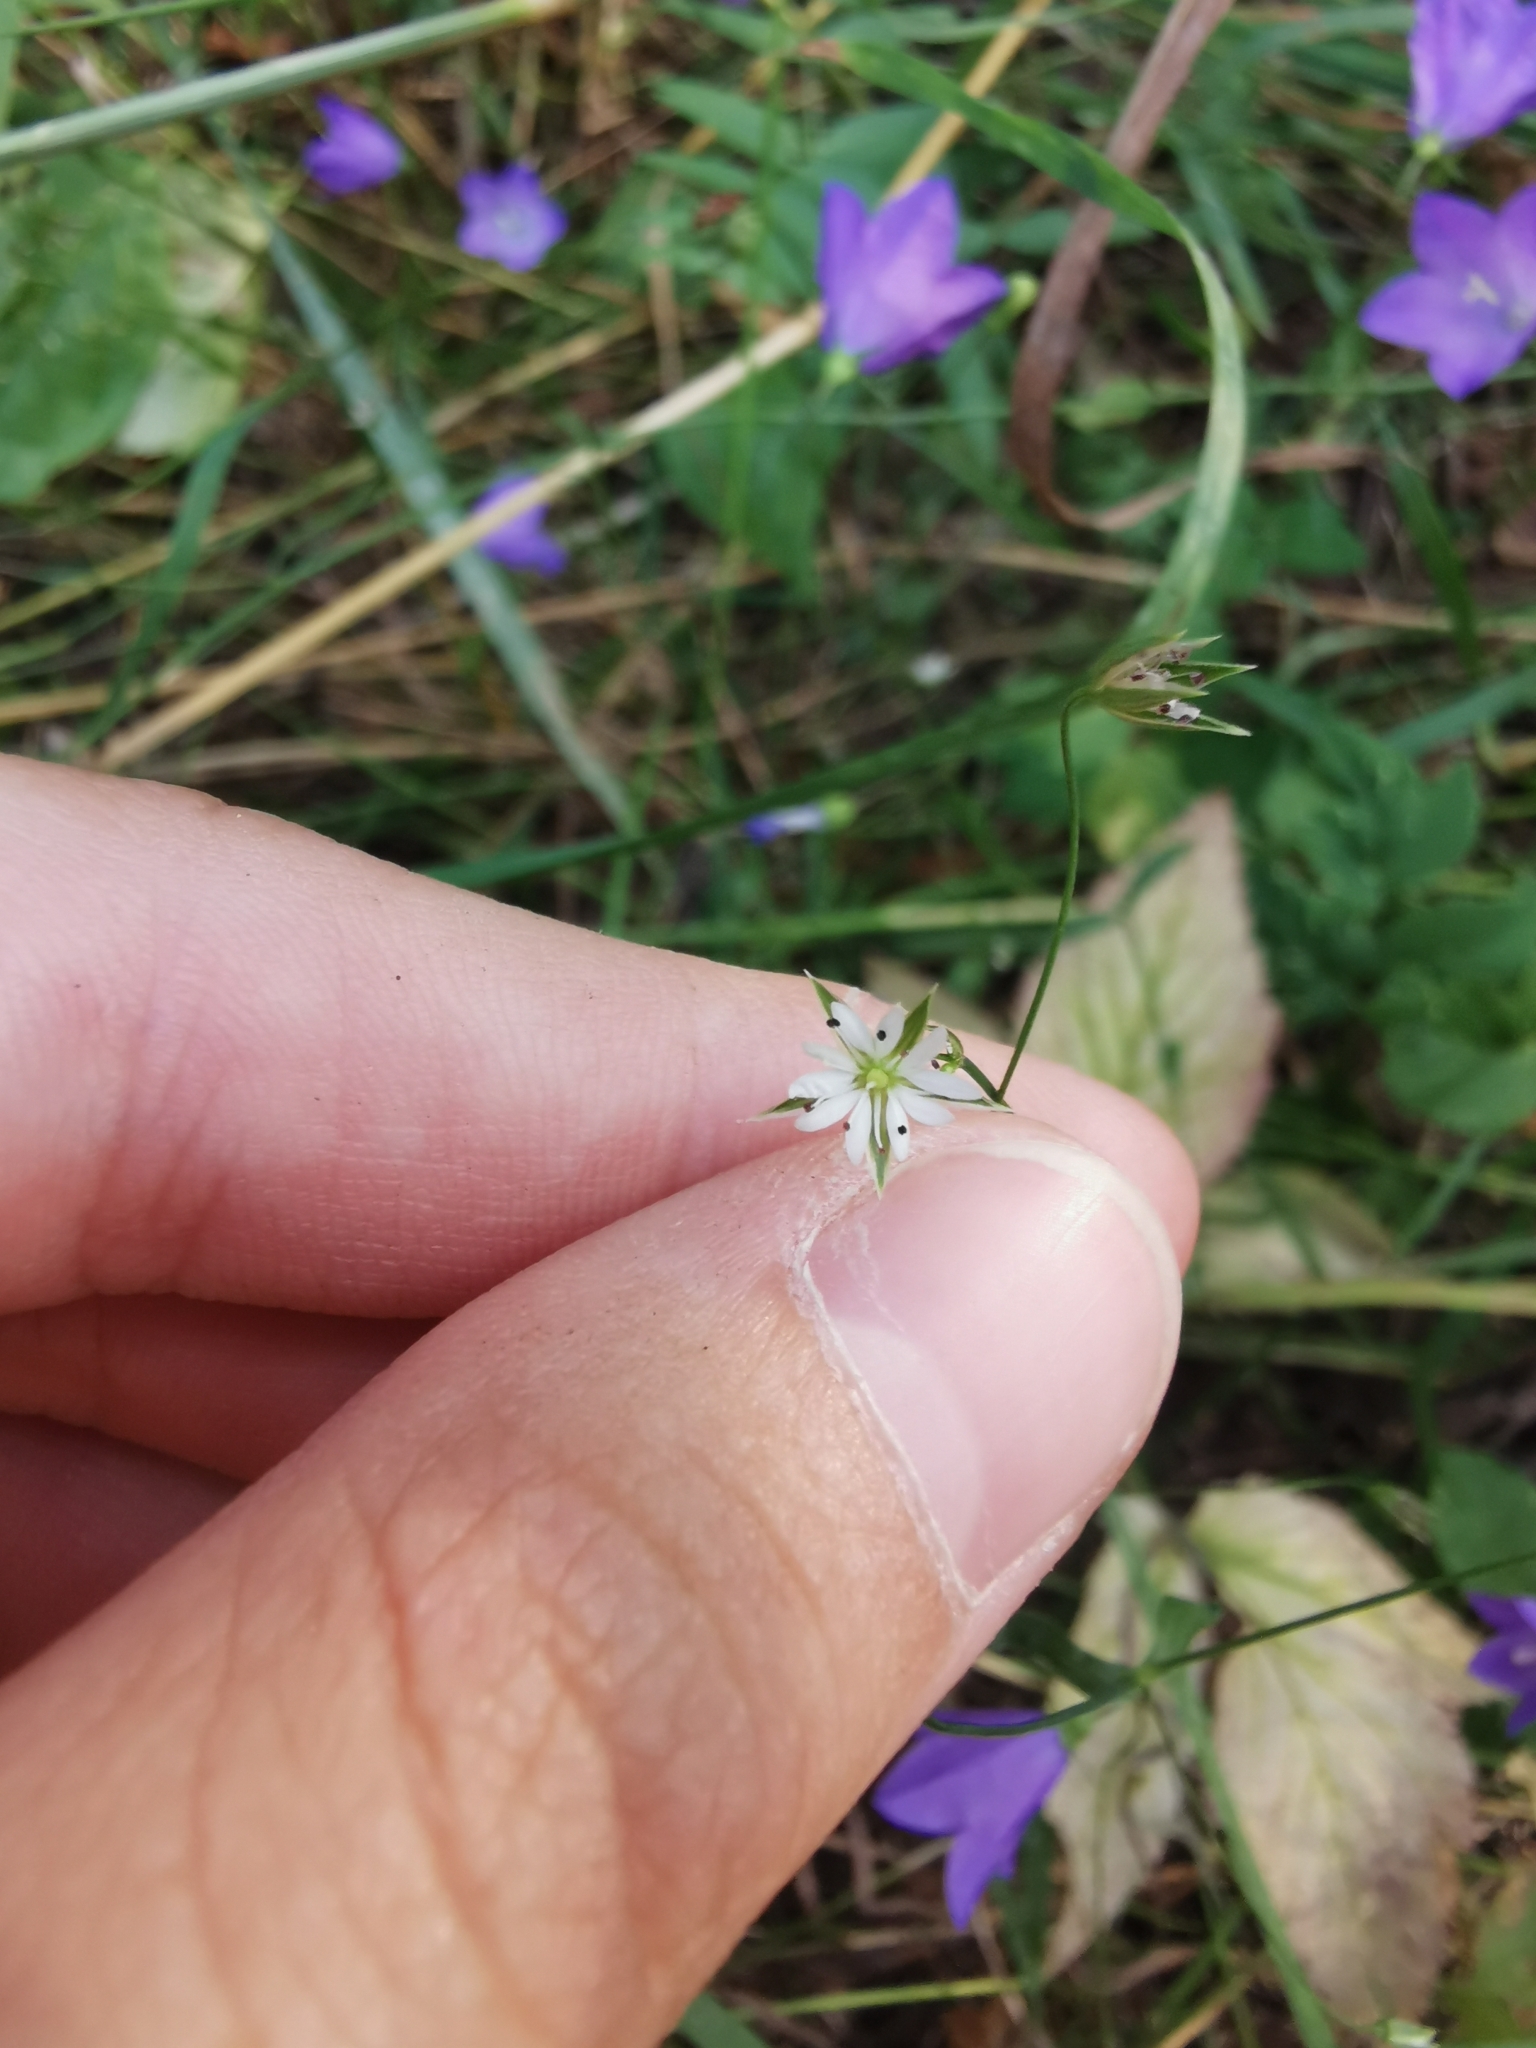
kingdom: Plantae
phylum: Tracheophyta
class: Magnoliopsida
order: Caryophyllales
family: Caryophyllaceae
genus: Stellaria
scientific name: Stellaria graminea
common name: Grass-like starwort
